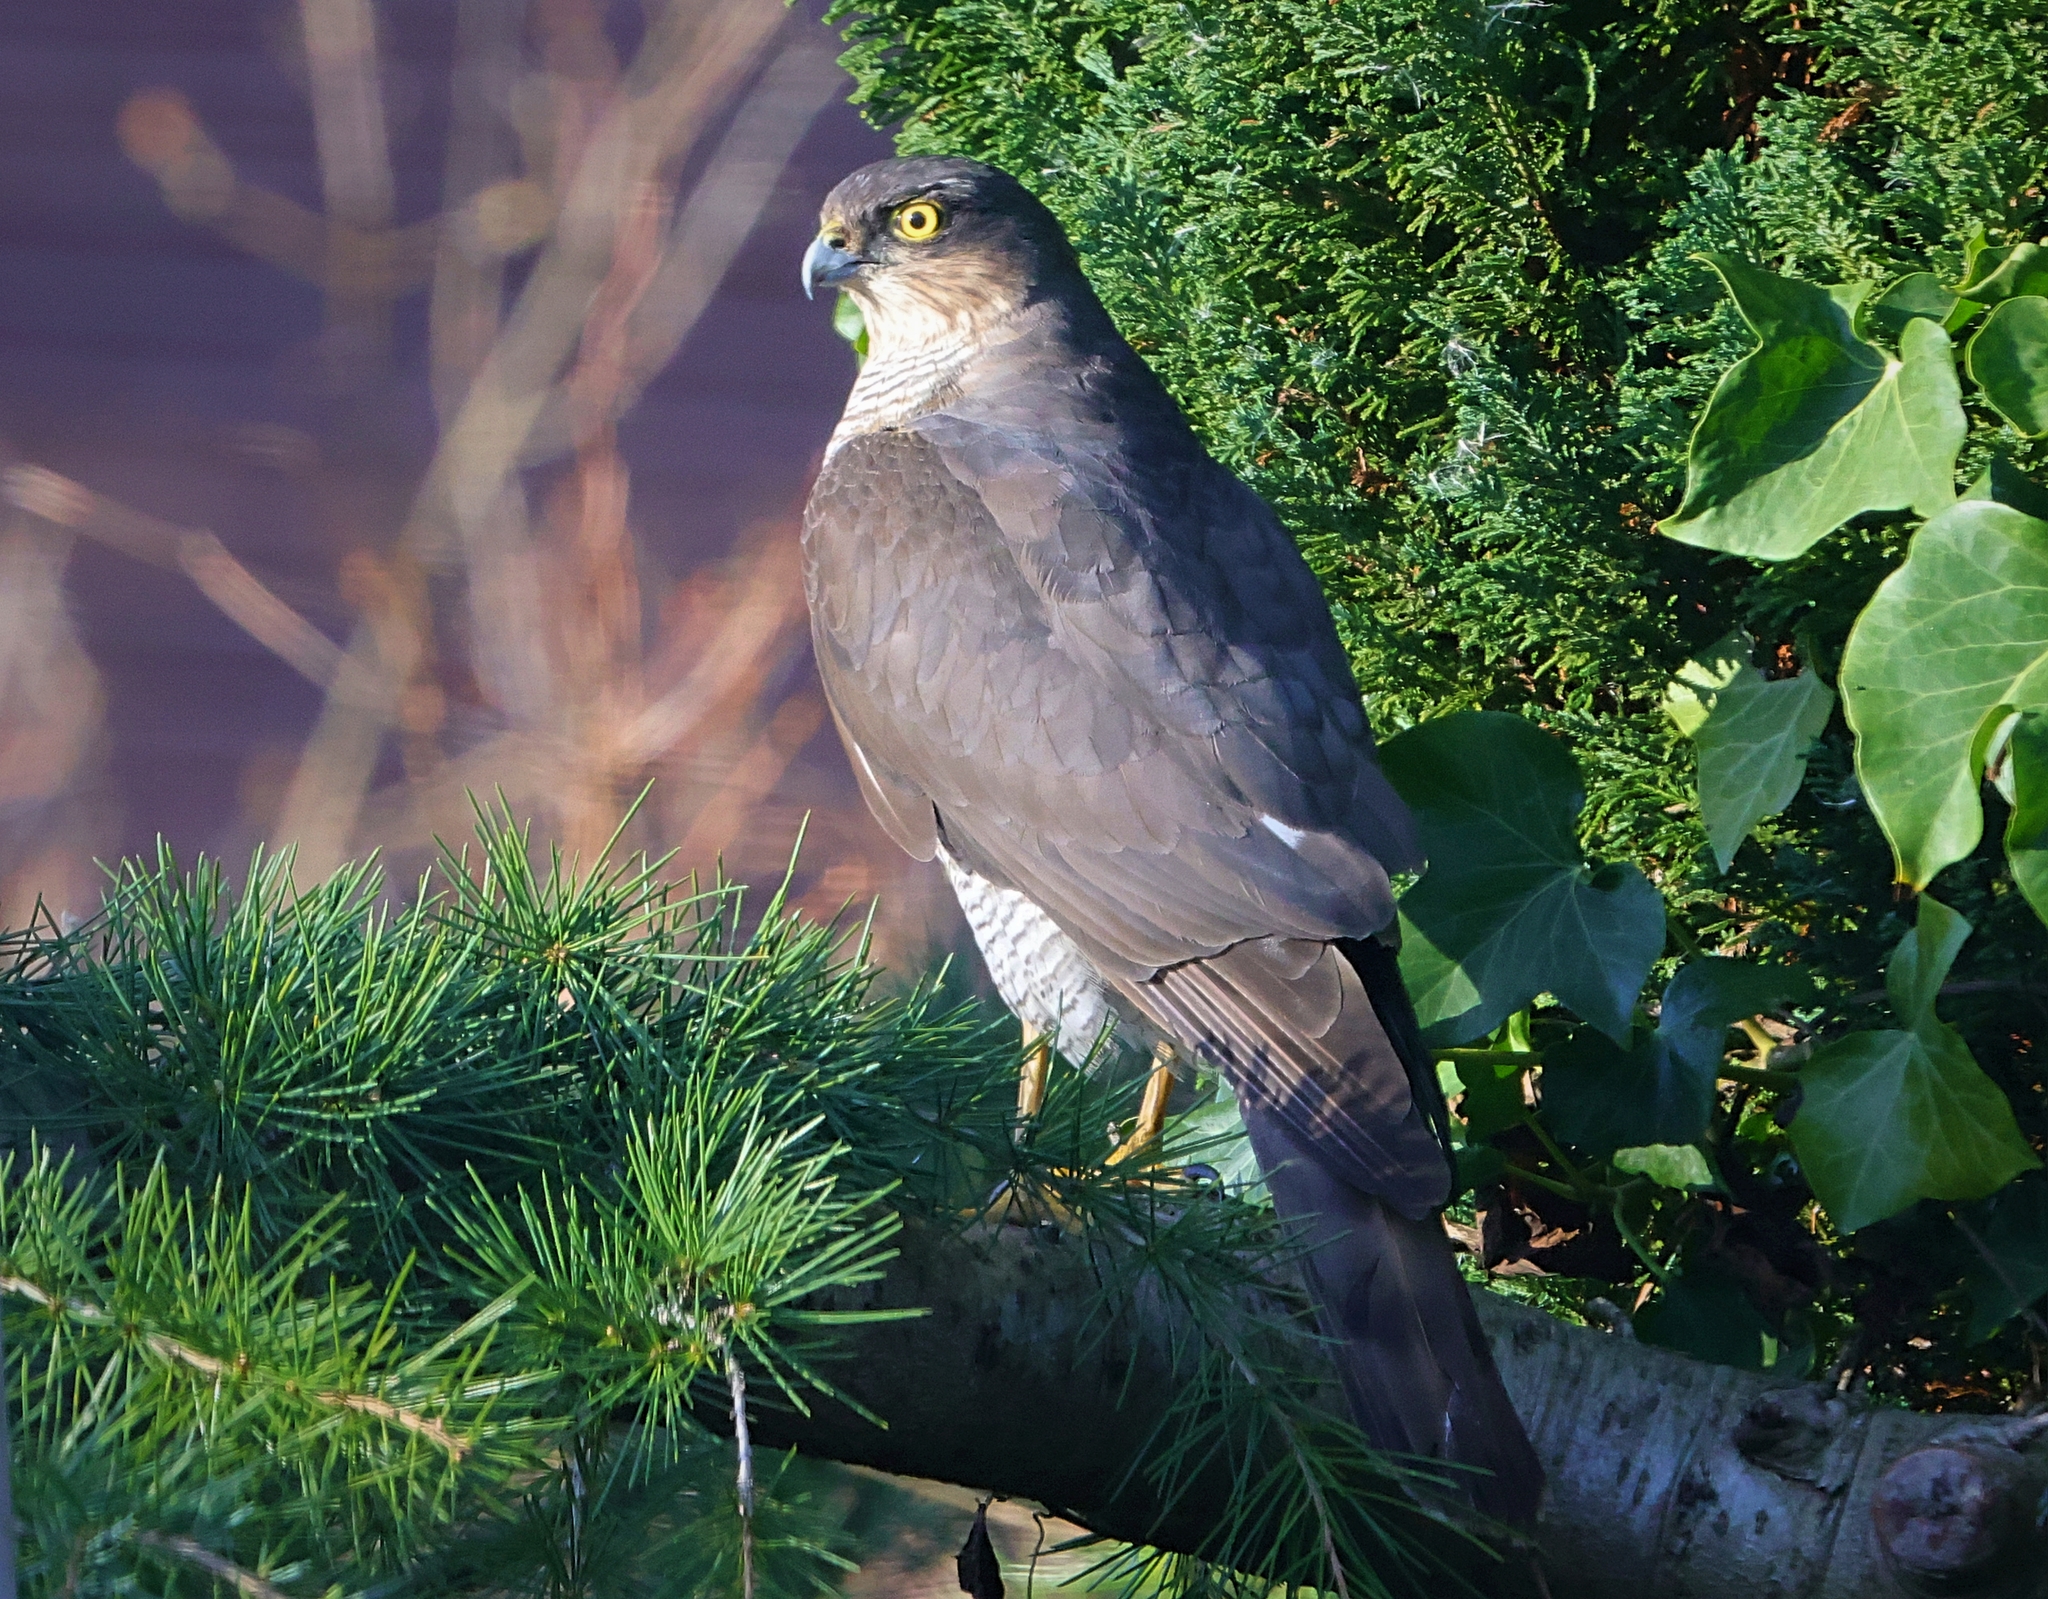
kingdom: Animalia
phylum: Chordata
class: Aves
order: Accipitriformes
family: Accipitridae
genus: Accipiter
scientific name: Accipiter nisus
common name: Eurasian sparrowhawk
